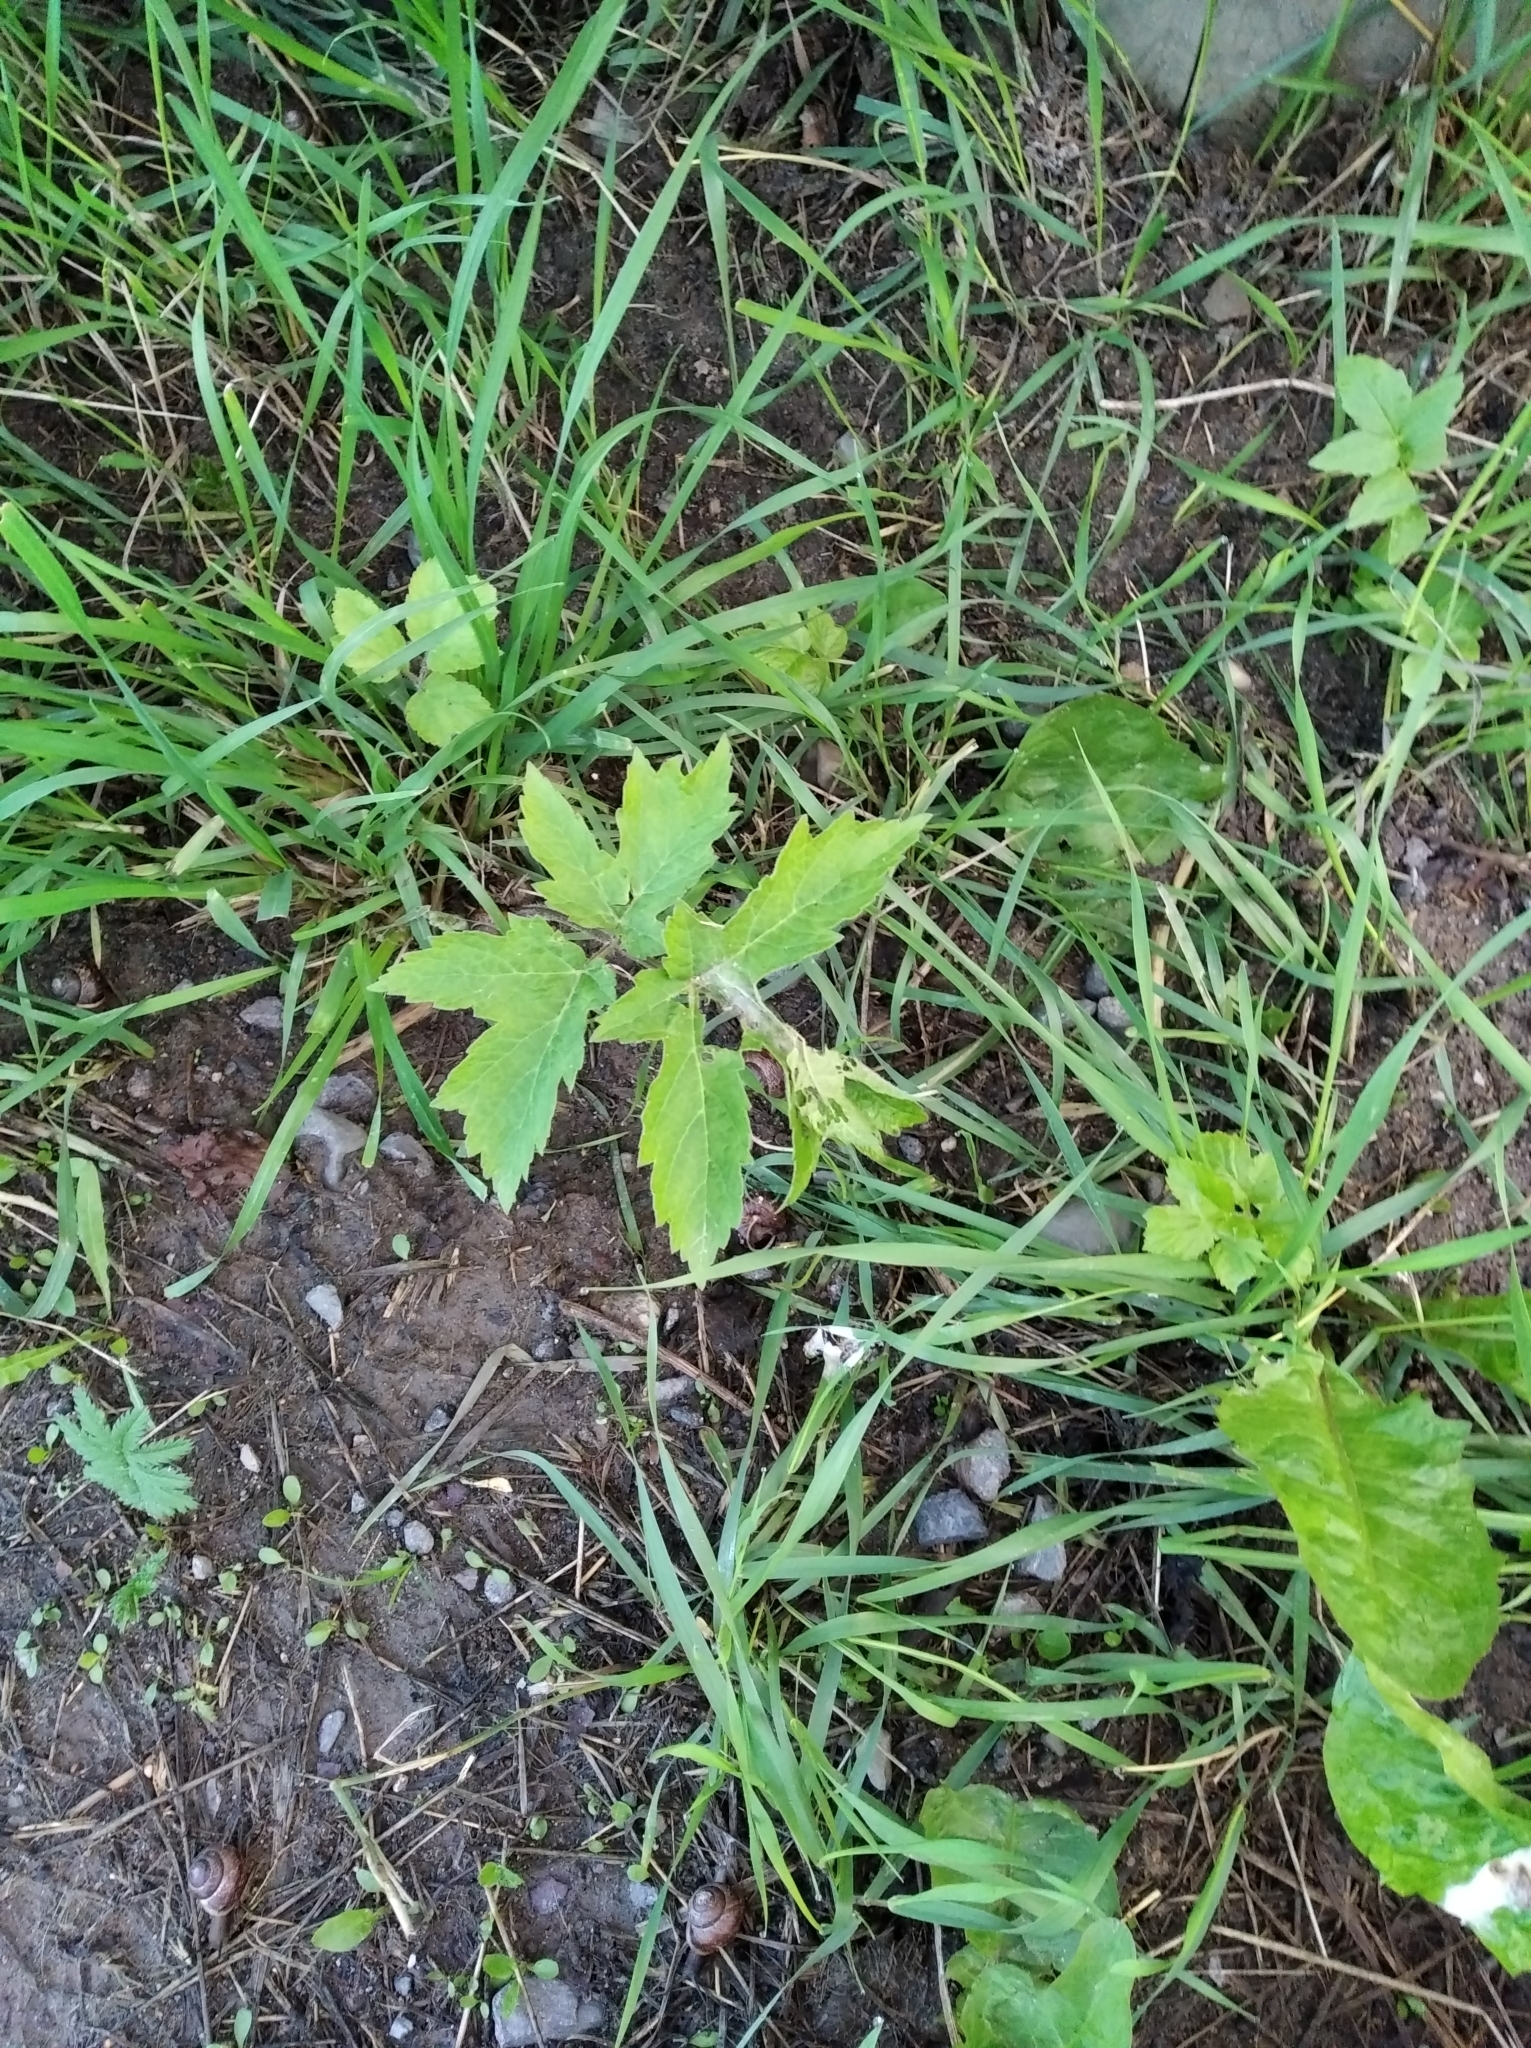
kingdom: Plantae
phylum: Tracheophyta
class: Magnoliopsida
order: Apiales
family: Apiaceae
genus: Heracleum
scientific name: Heracleum sphondylium
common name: Hogweed
